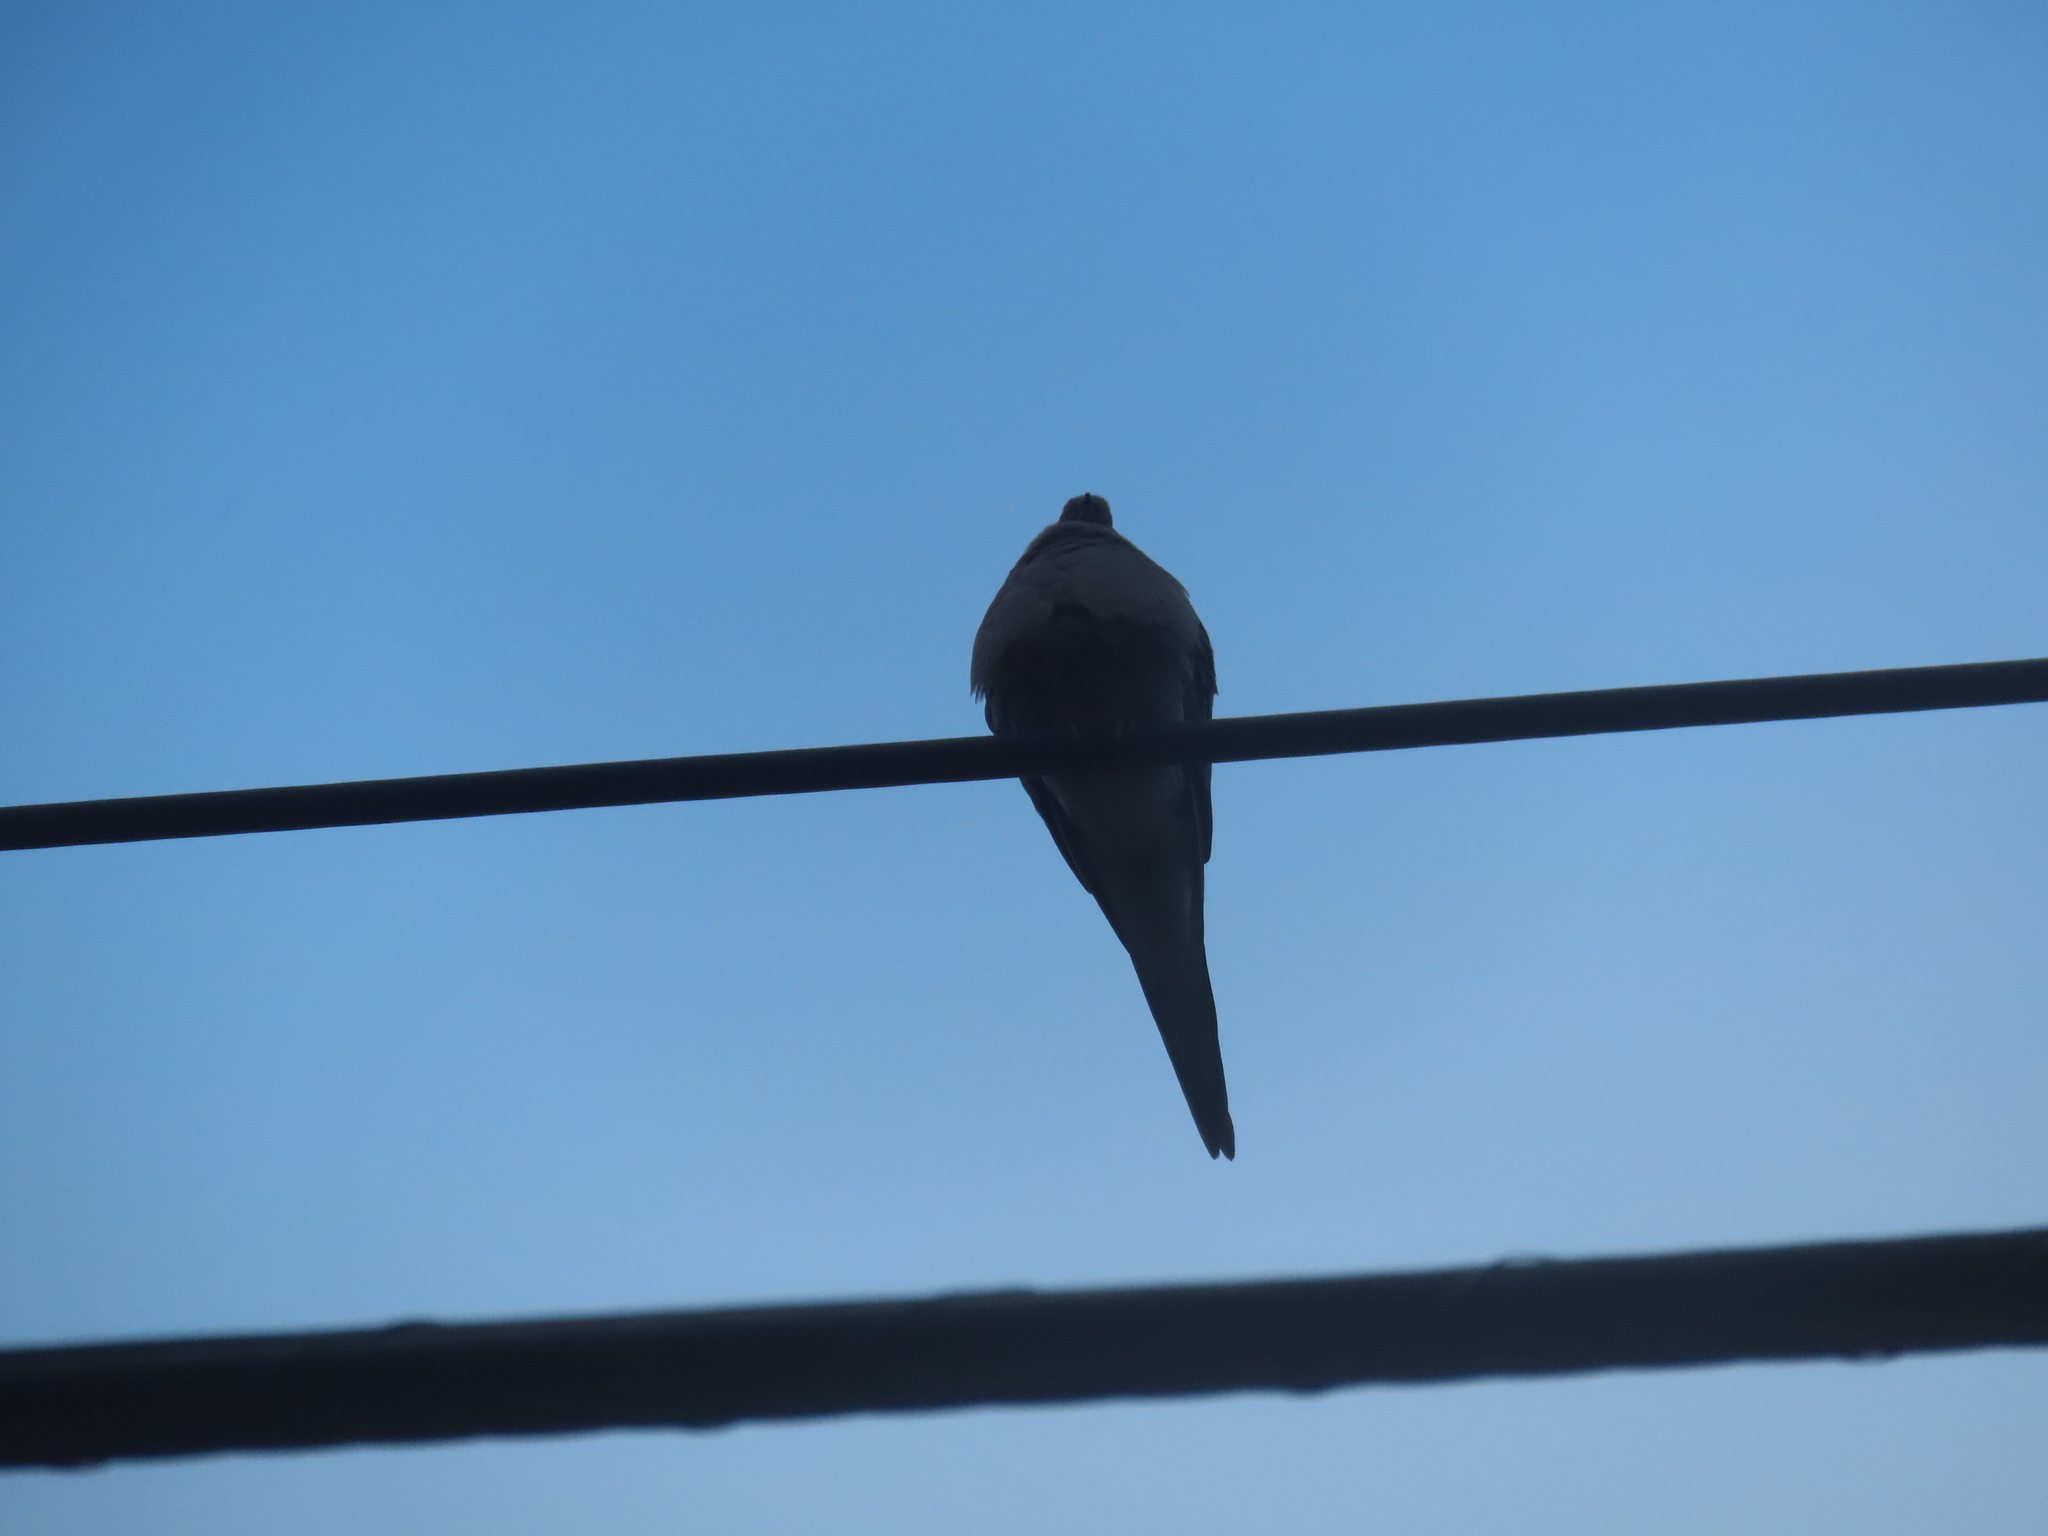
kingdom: Animalia
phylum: Chordata
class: Aves
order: Columbiformes
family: Columbidae
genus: Zenaida
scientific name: Zenaida macroura
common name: Mourning dove
